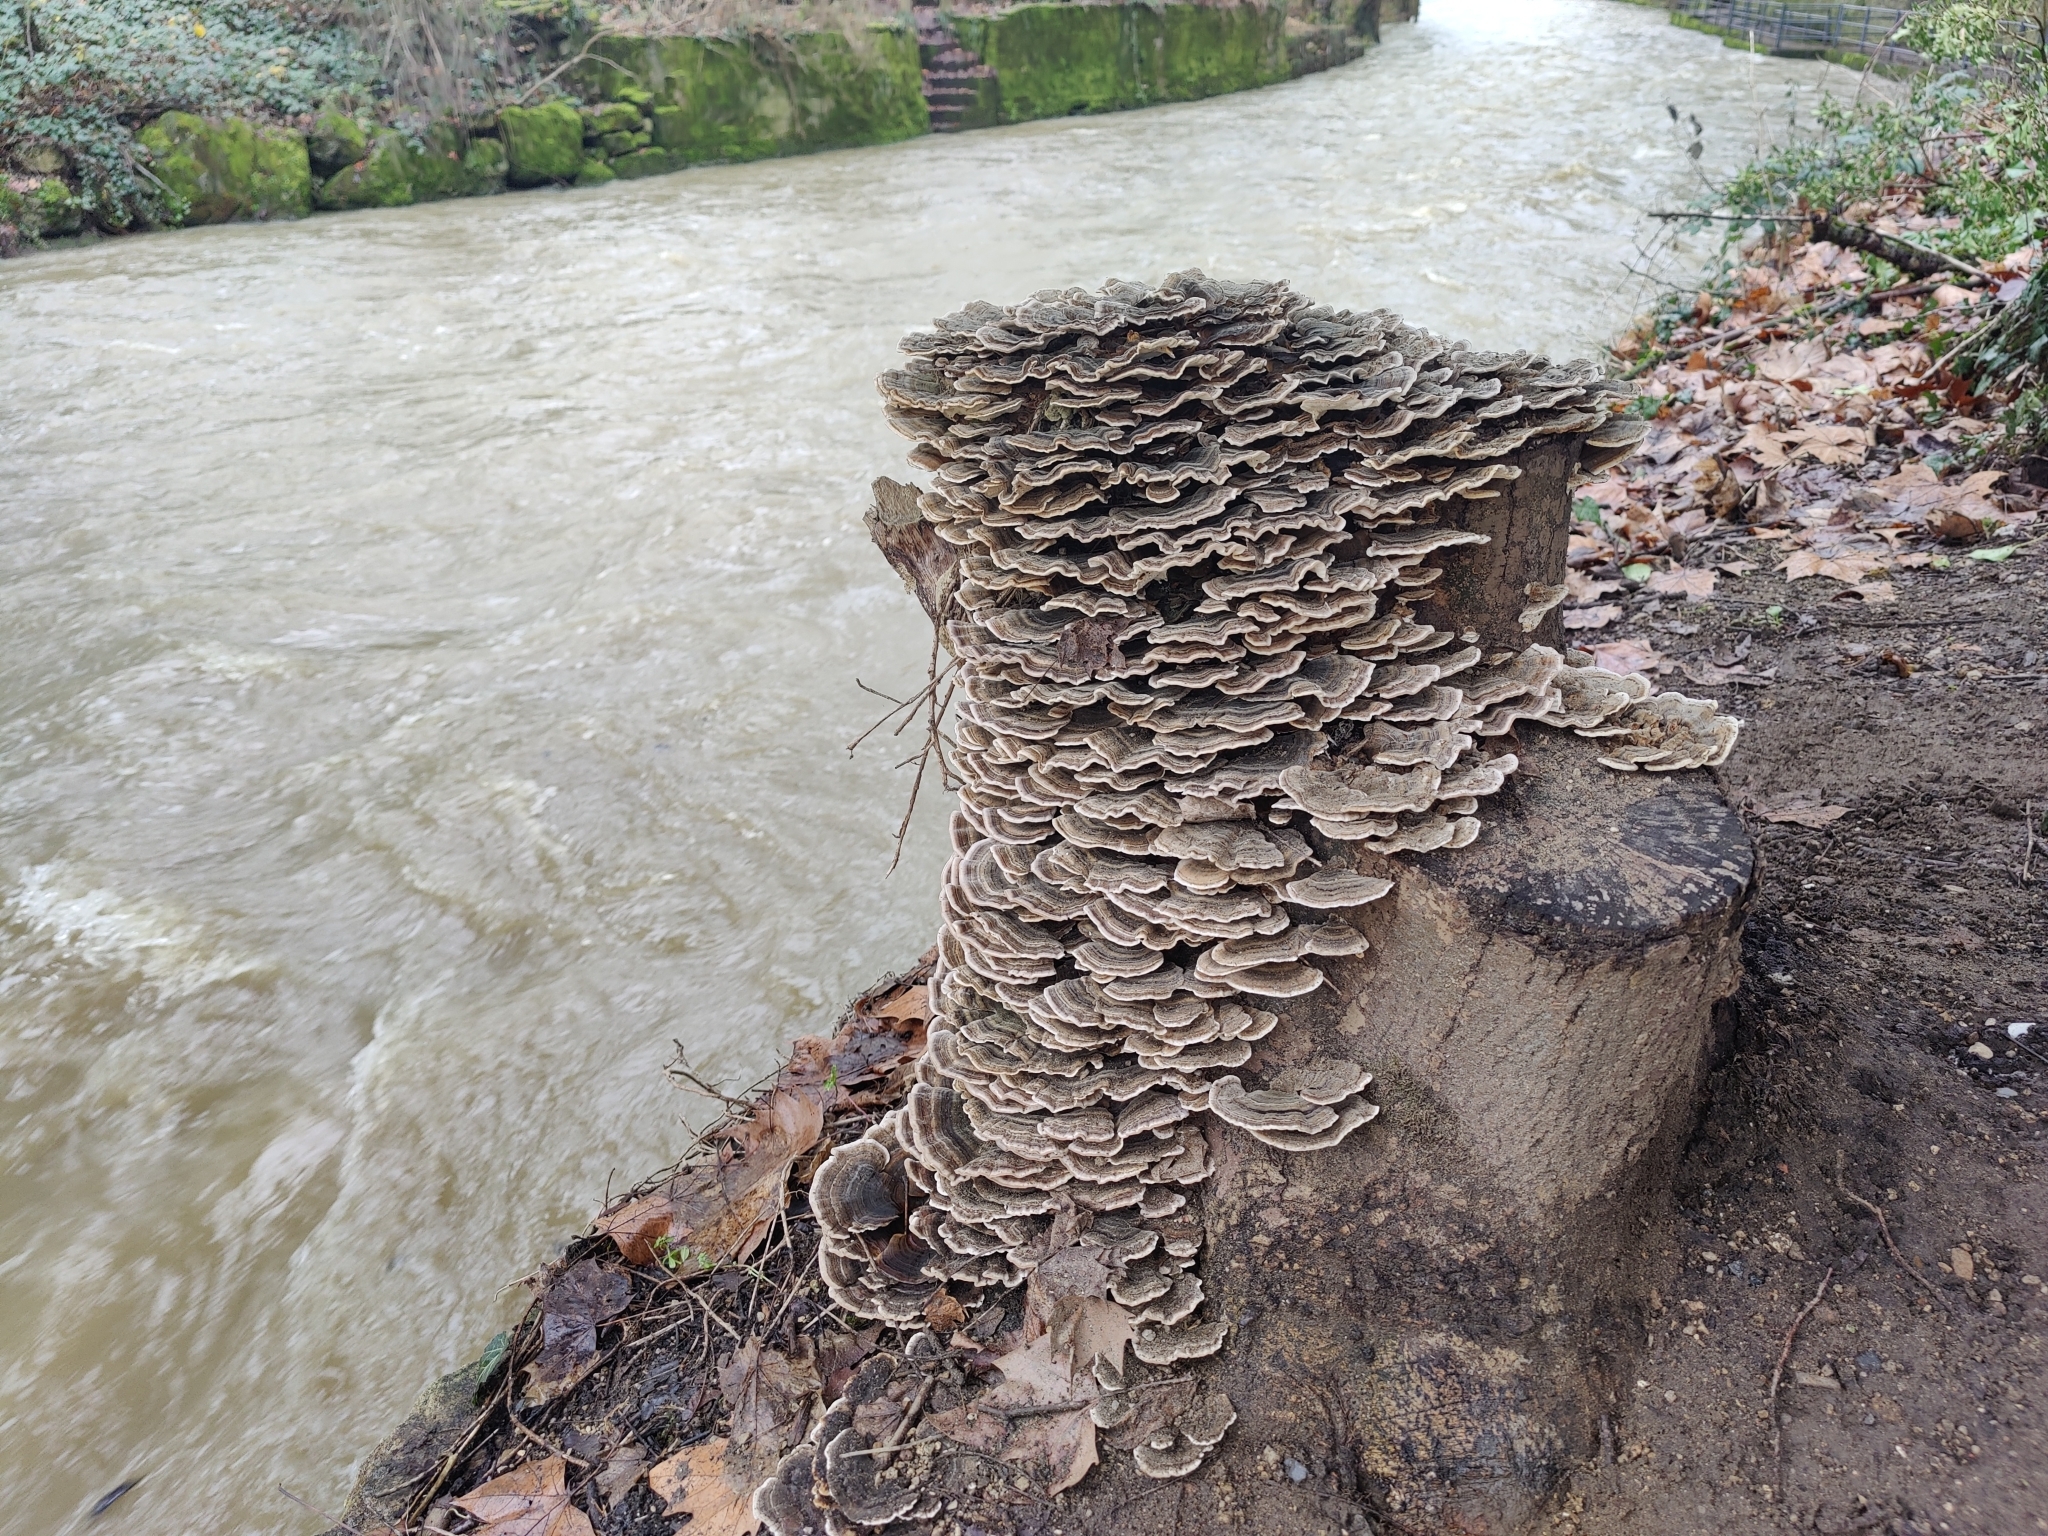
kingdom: Fungi
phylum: Basidiomycota
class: Agaricomycetes
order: Polyporales
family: Polyporaceae
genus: Trametes
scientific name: Trametes versicolor
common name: Turkeytail
